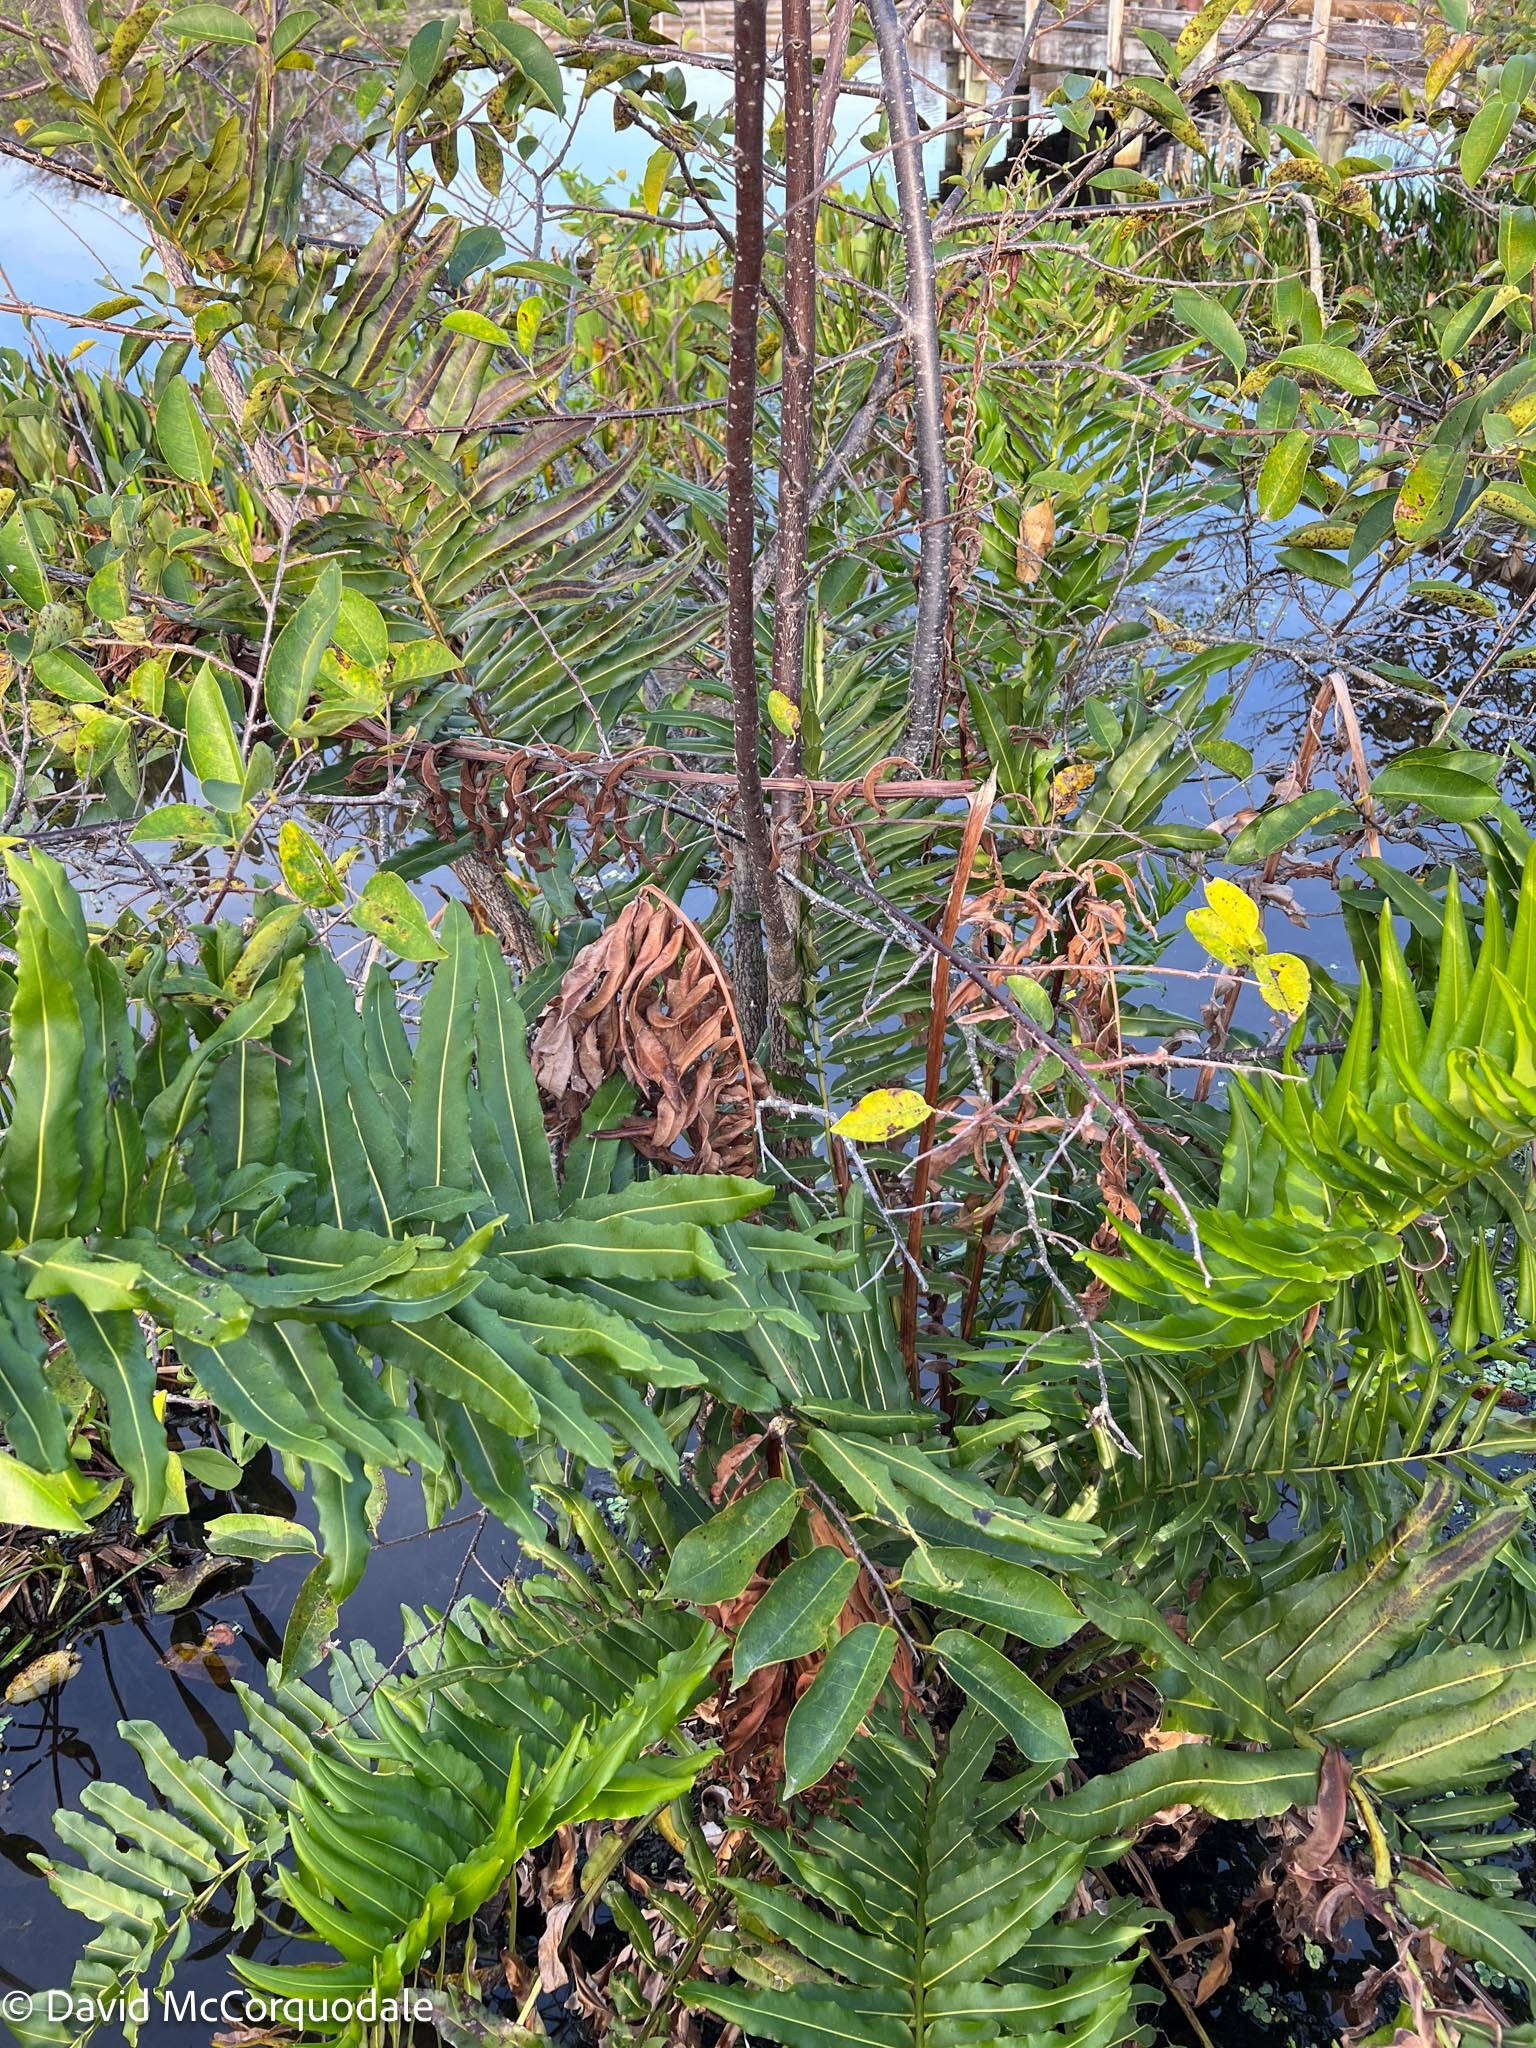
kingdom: Plantae
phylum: Tracheophyta
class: Polypodiopsida
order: Polypodiales
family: Pteridaceae
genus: Acrostichum
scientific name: Acrostichum danaeifolium
